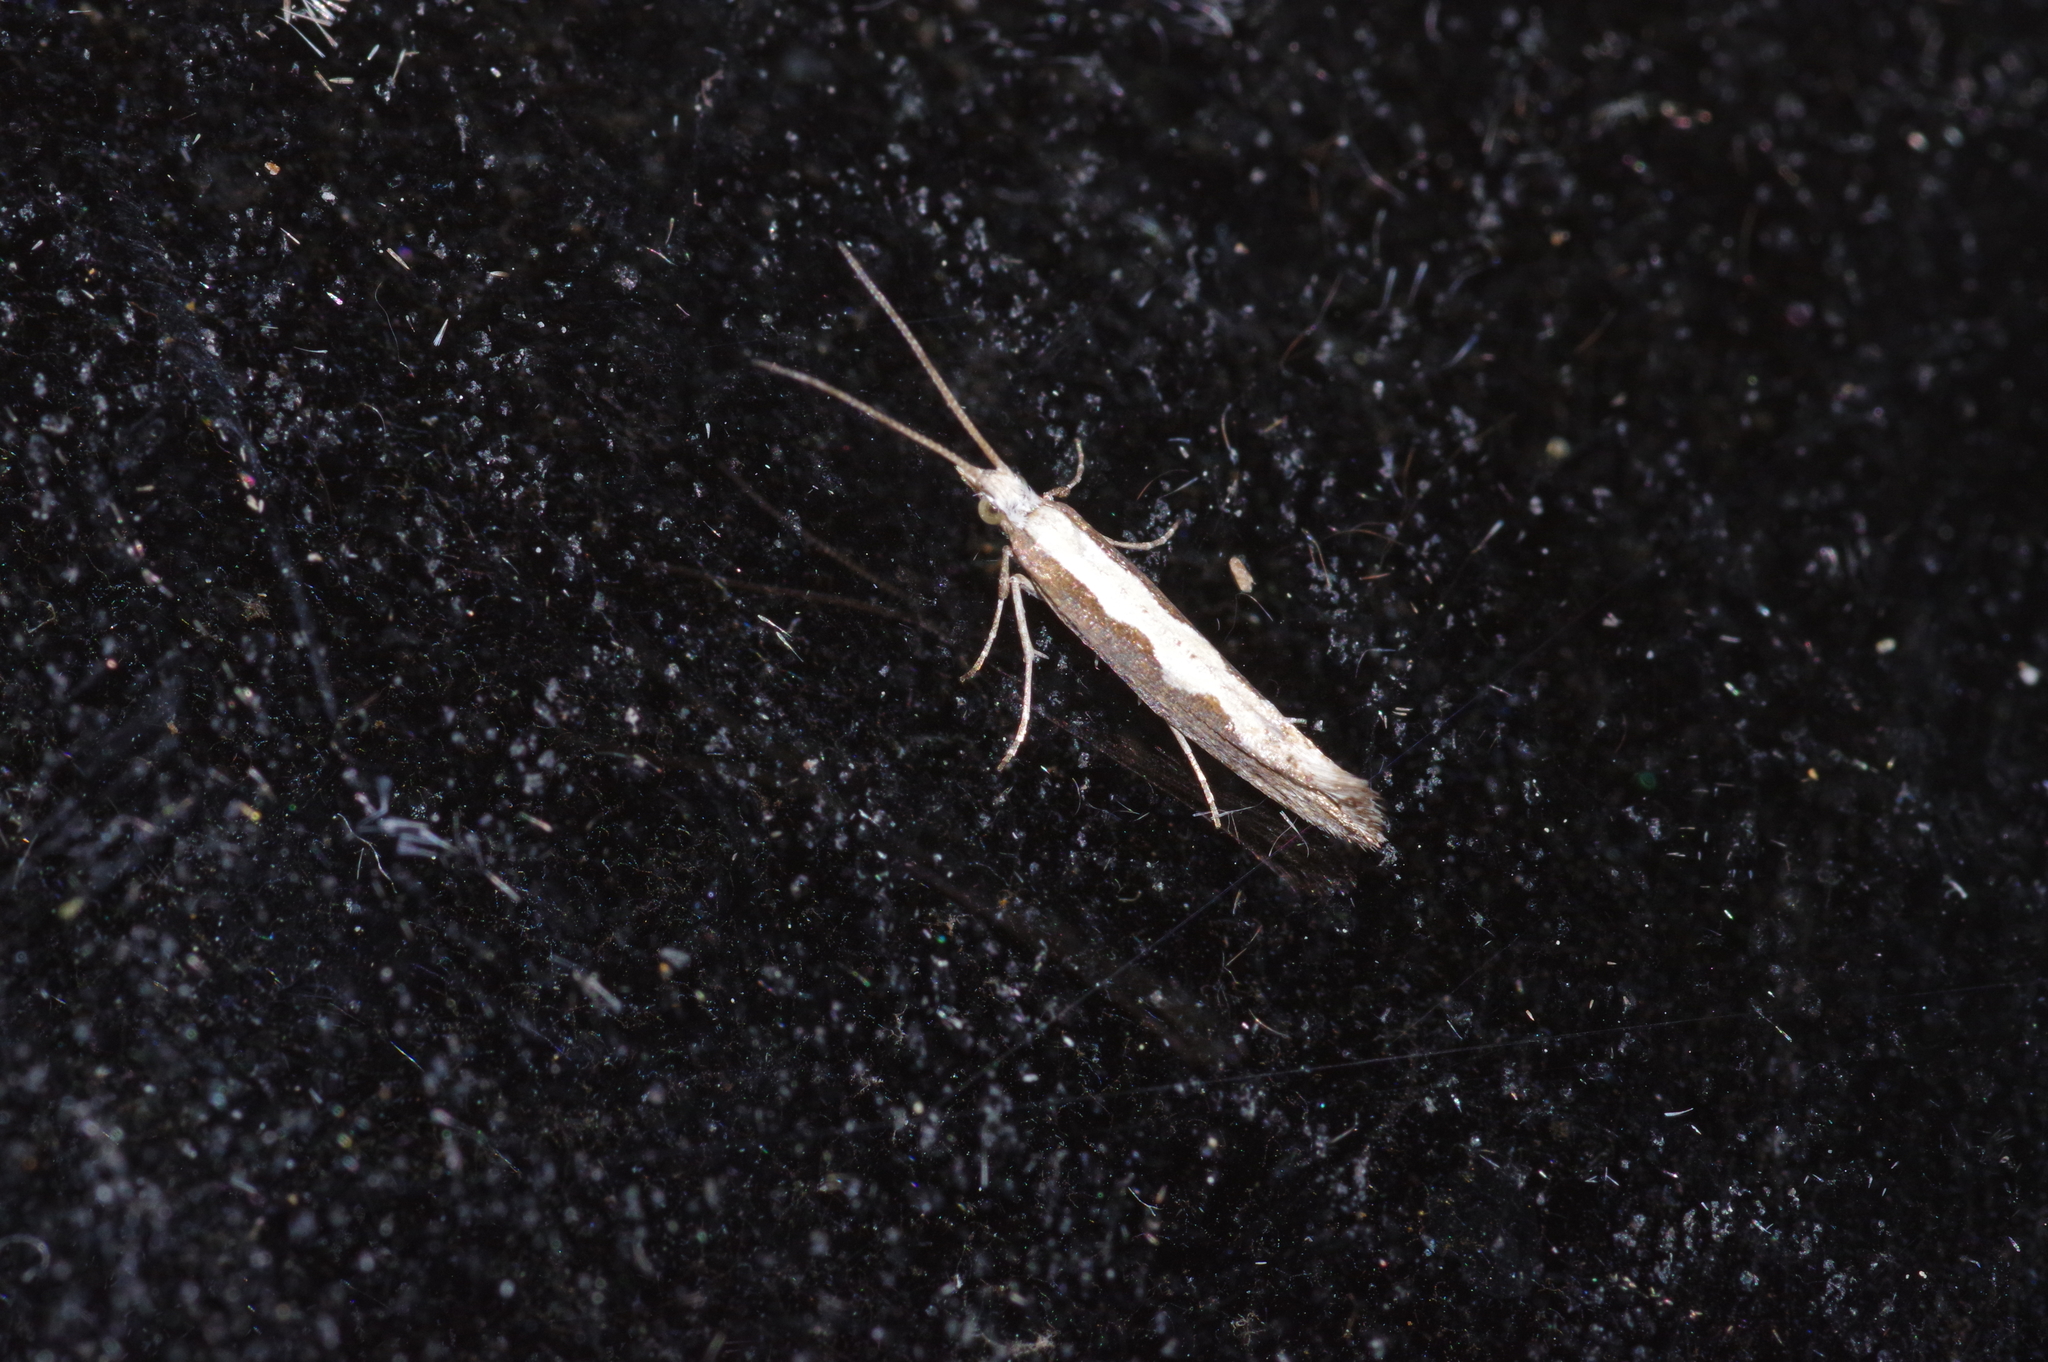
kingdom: Animalia
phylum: Arthropoda
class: Insecta
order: Lepidoptera
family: Plutellidae
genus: Plutella
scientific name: Plutella xylostella
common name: Diamond-back moth
